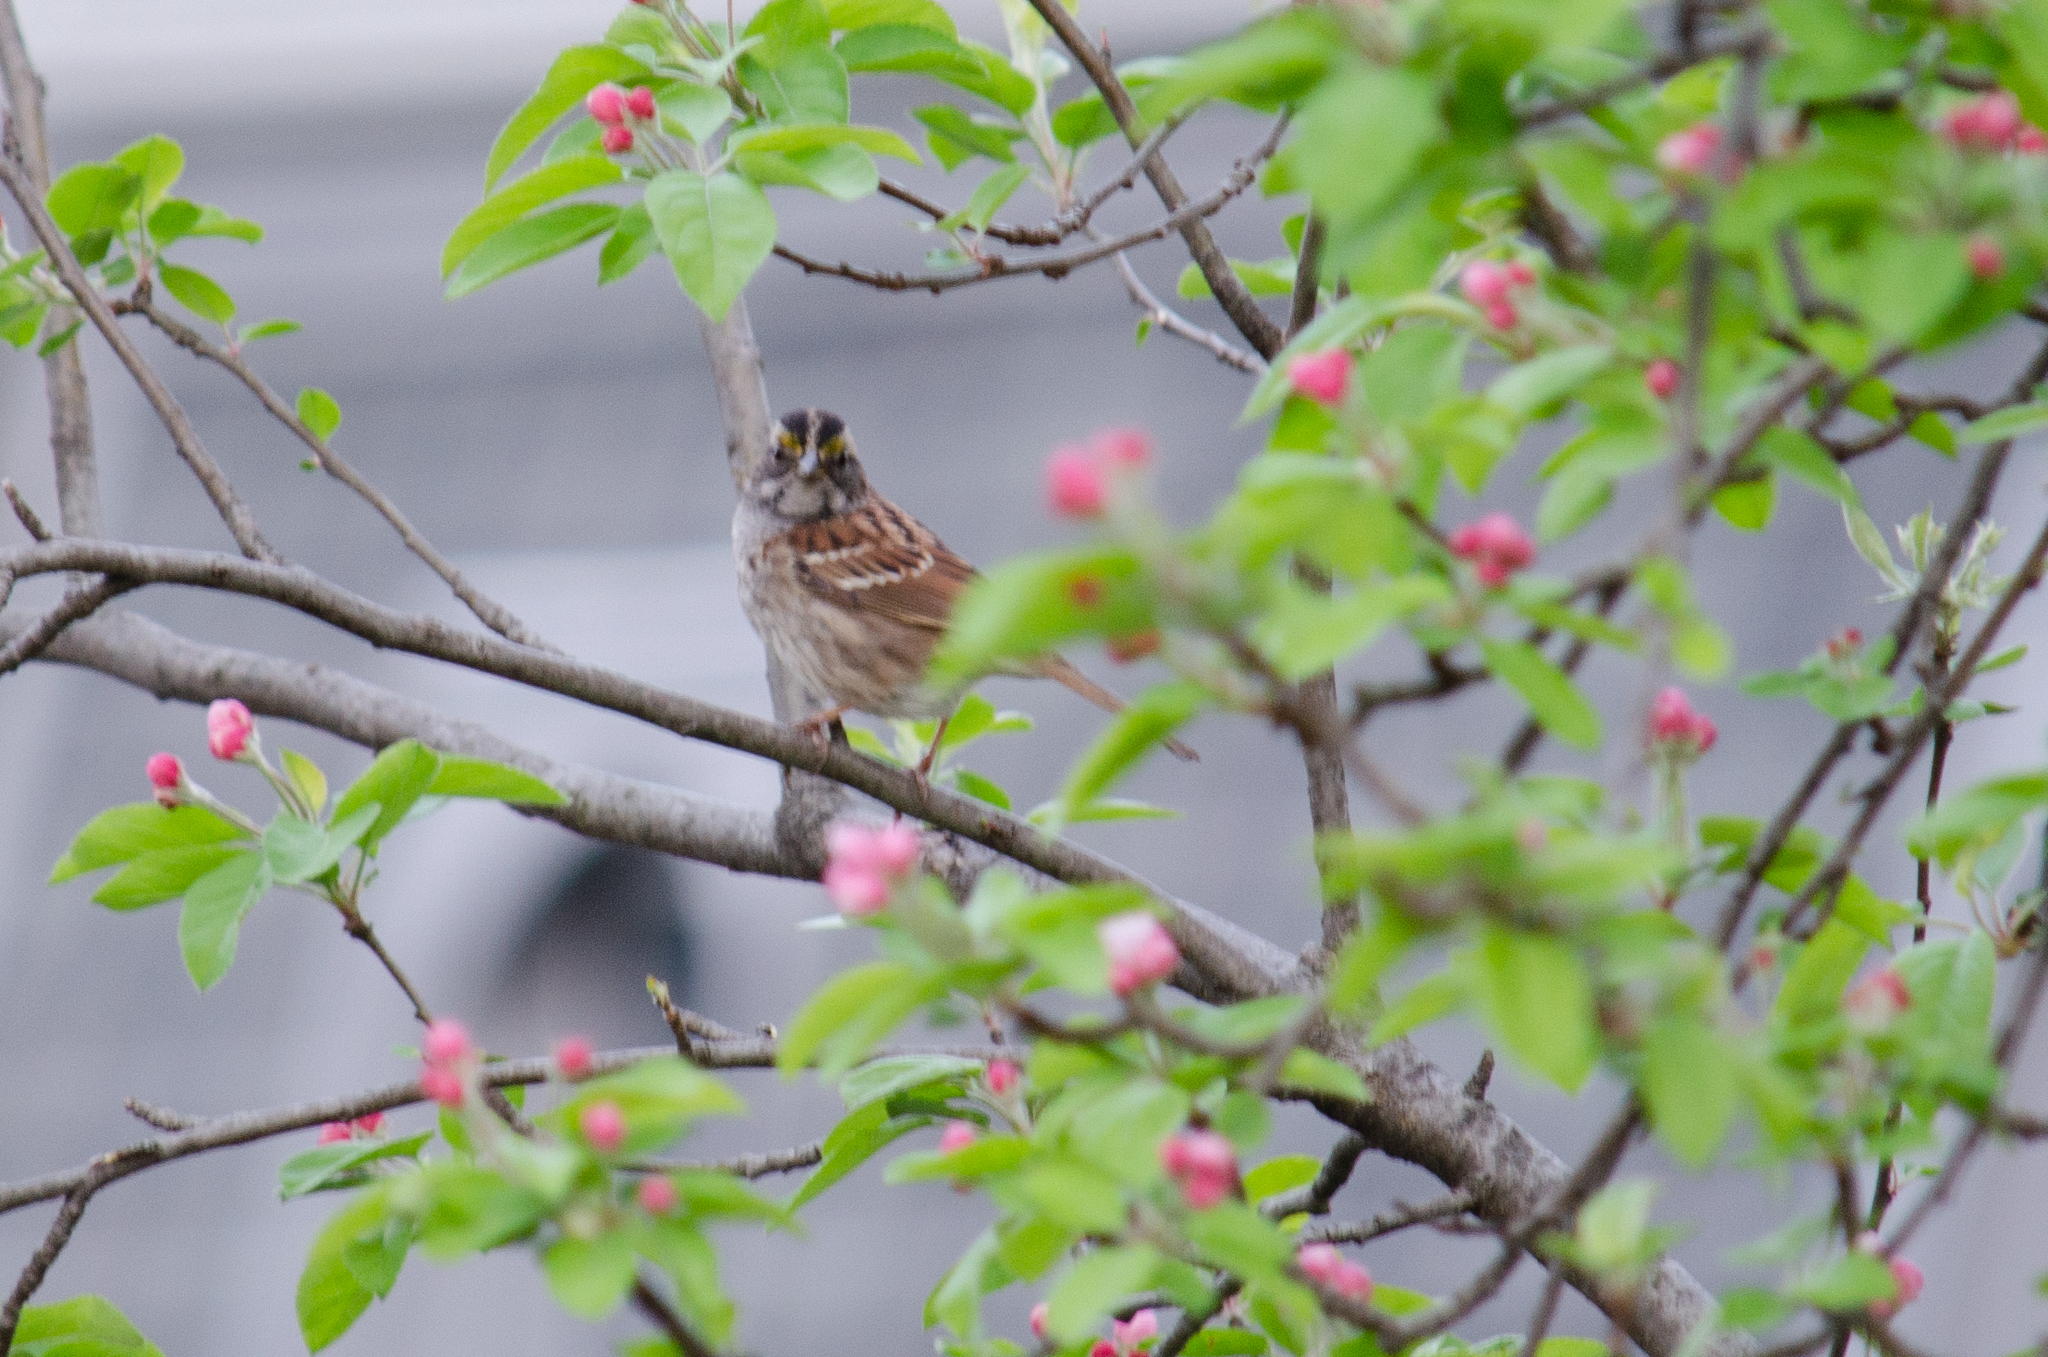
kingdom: Animalia
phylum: Chordata
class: Aves
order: Passeriformes
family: Passerellidae
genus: Zonotrichia
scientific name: Zonotrichia albicollis
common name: White-throated sparrow
